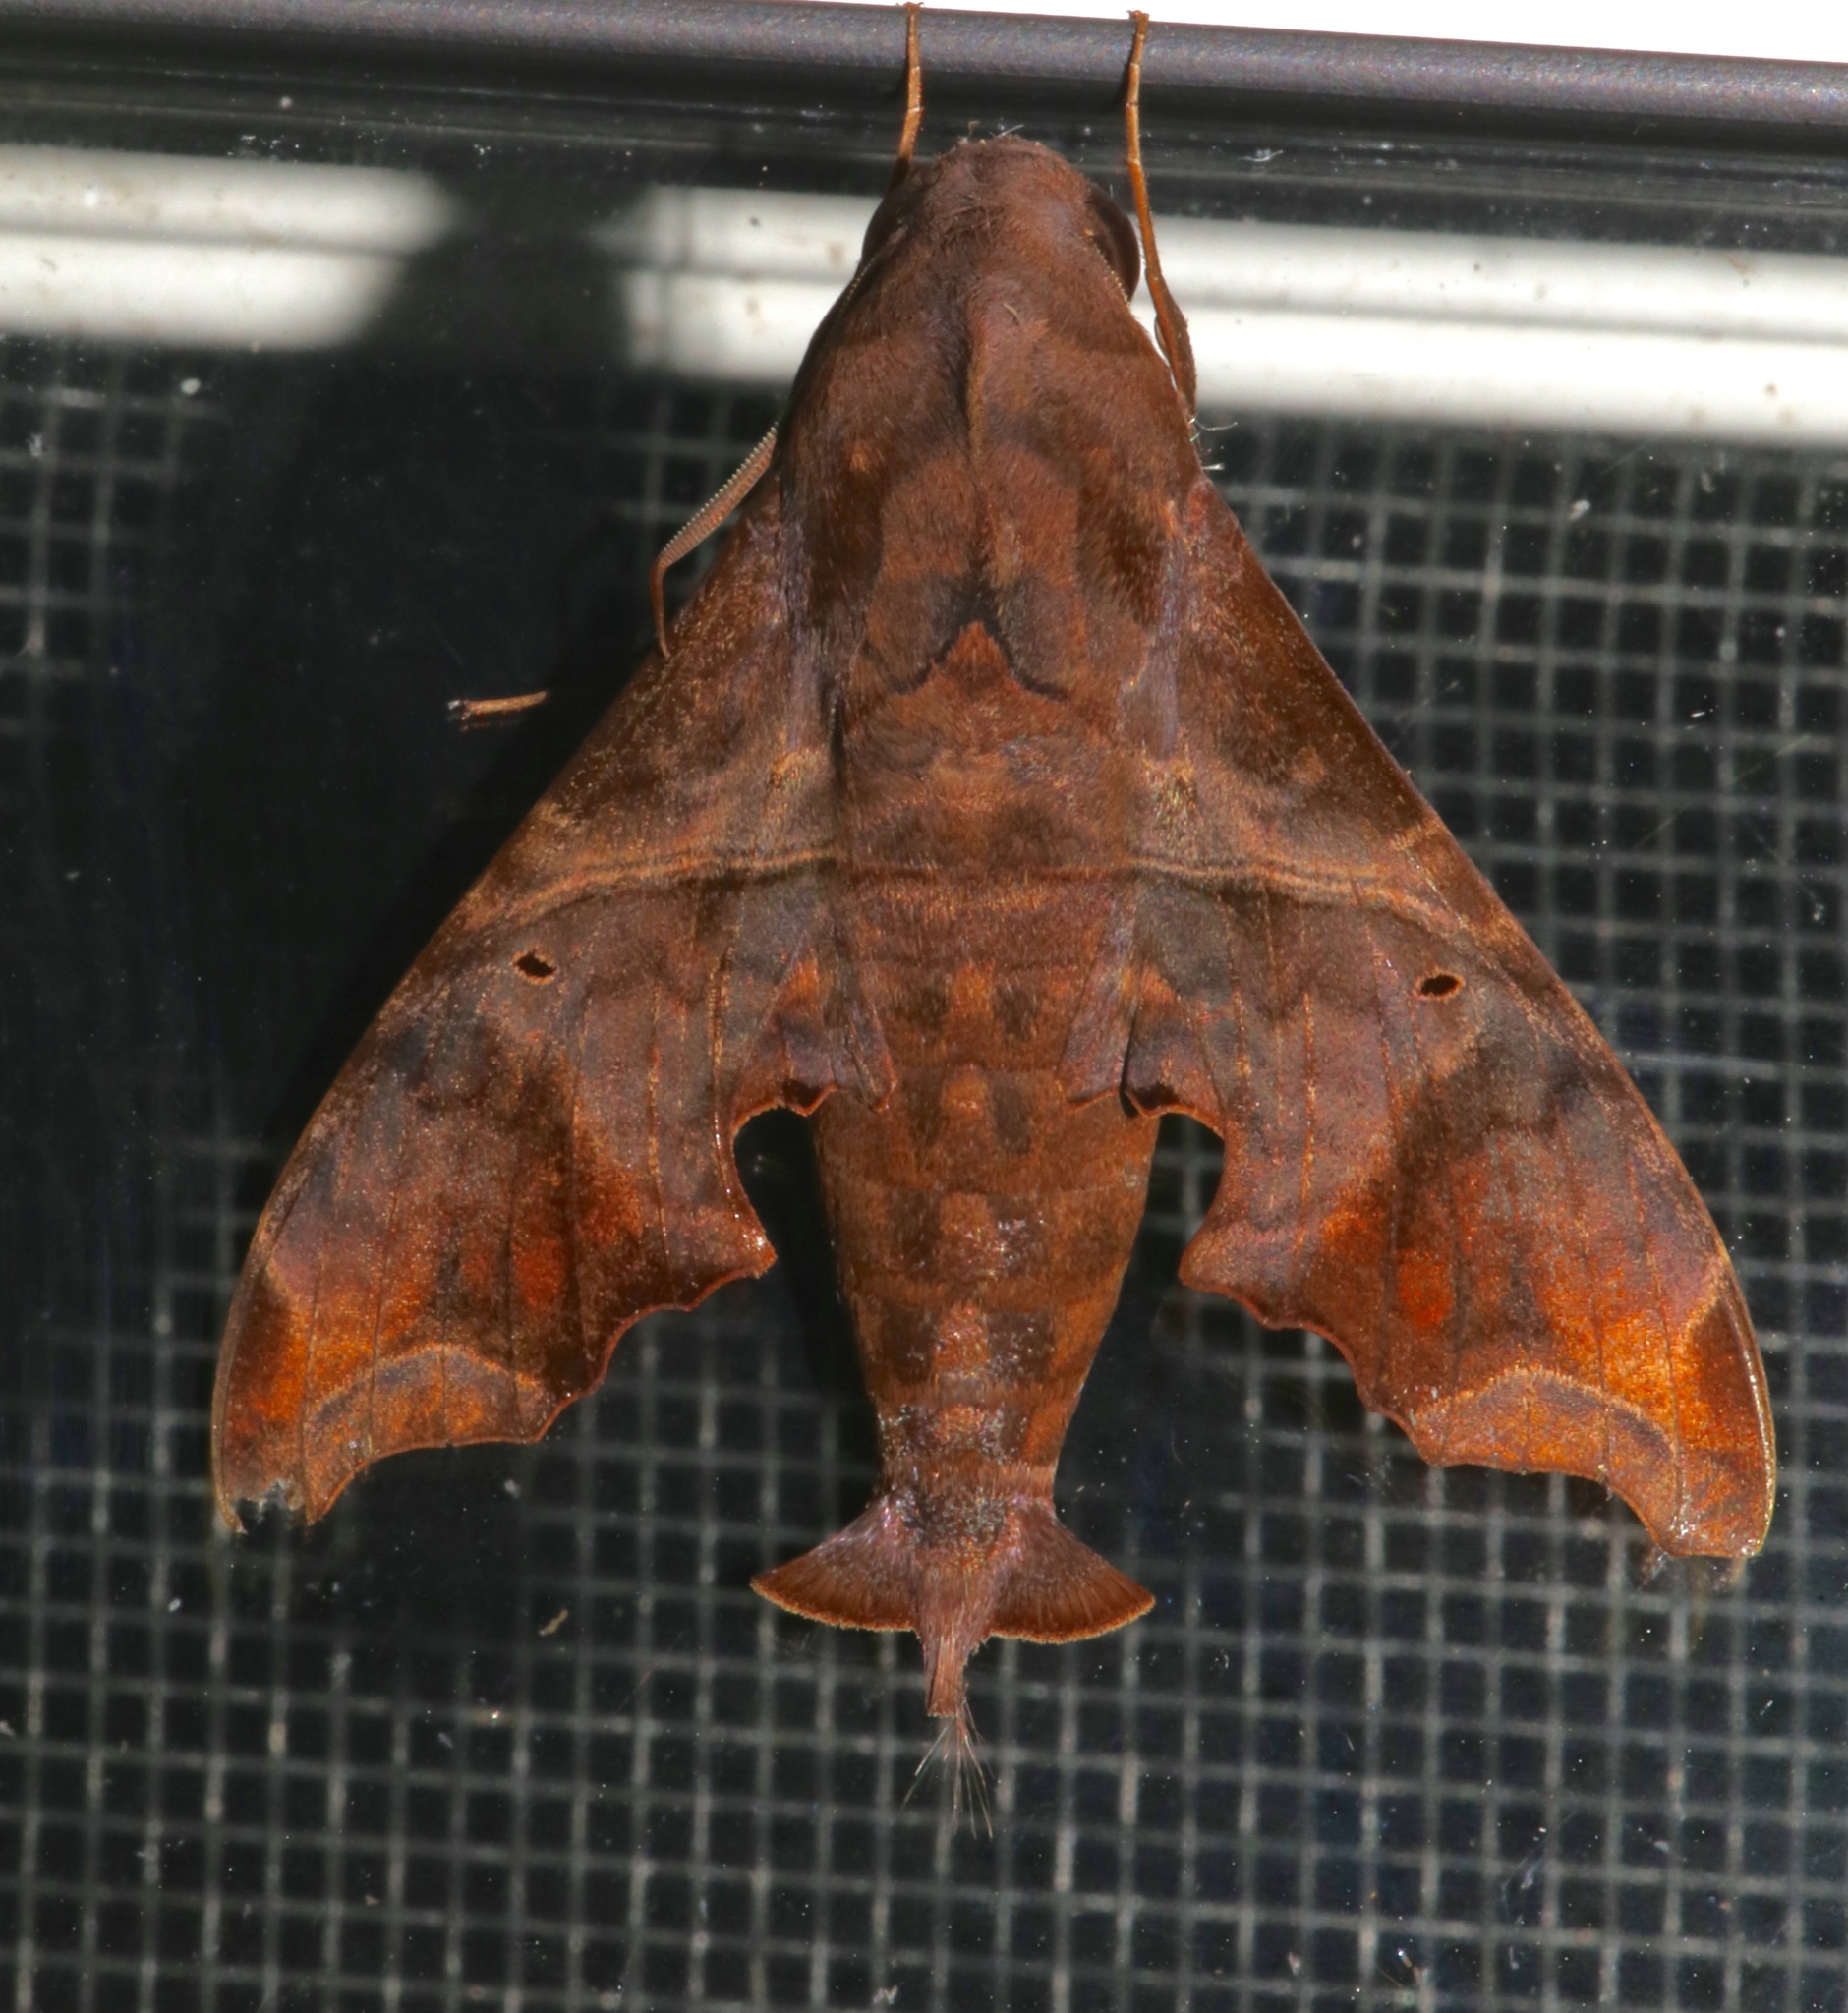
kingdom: Animalia
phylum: Arthropoda
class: Insecta
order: Lepidoptera
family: Sphingidae
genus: Enyo
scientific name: Enyo lugubris
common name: Mournful sphinx
